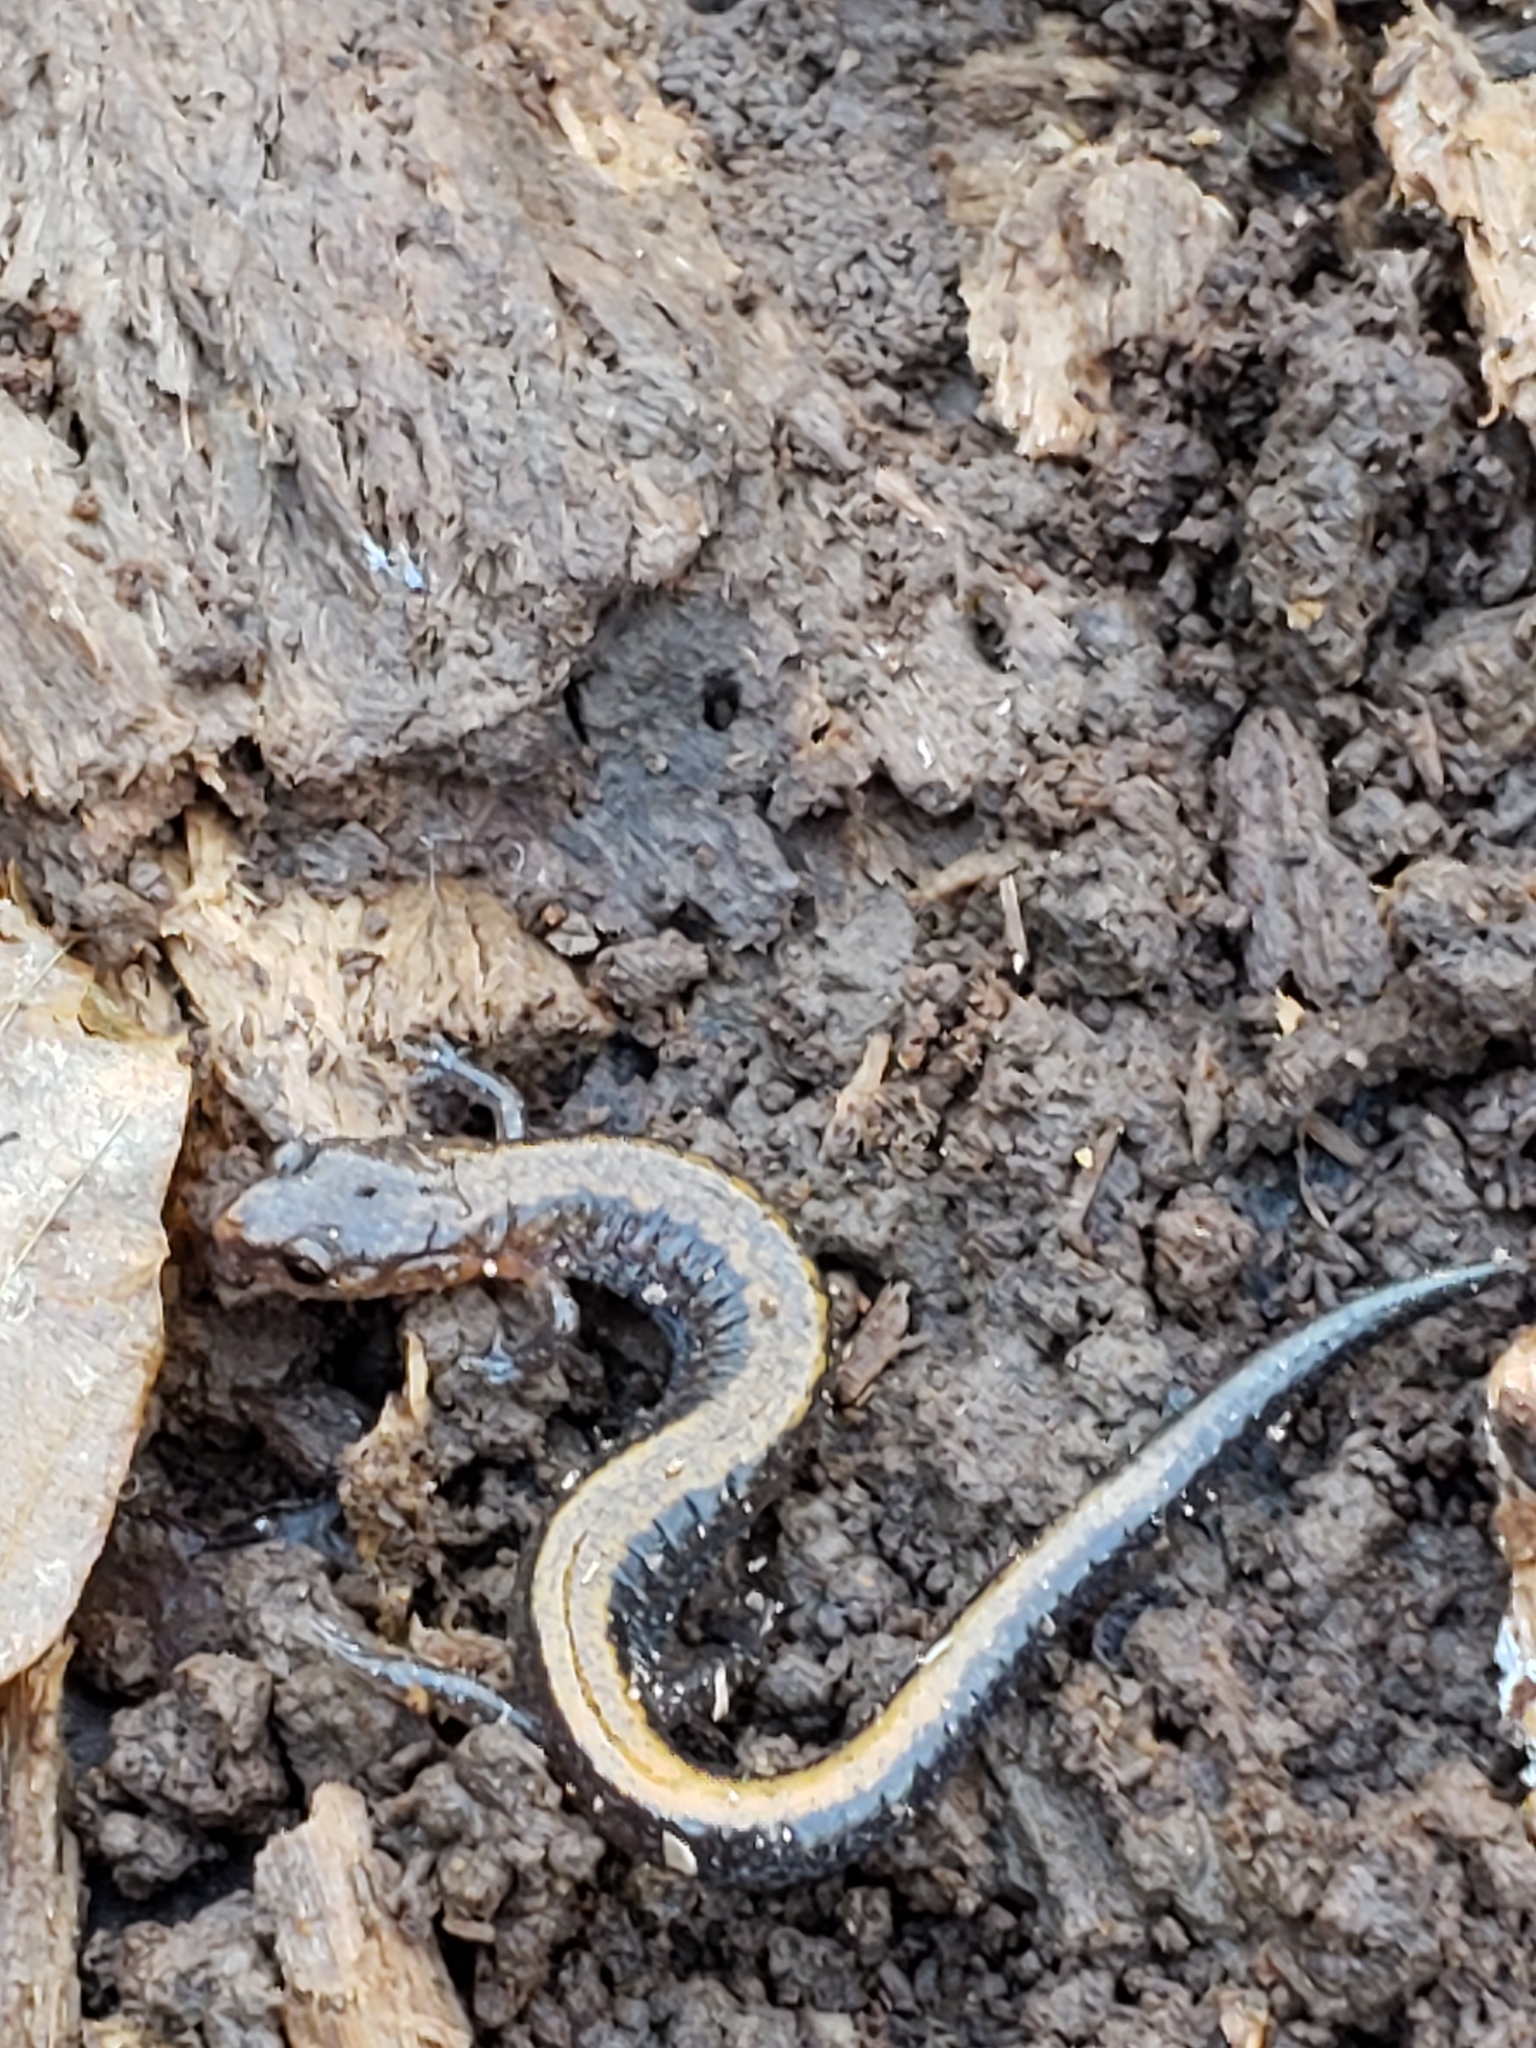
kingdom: Animalia
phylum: Chordata
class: Amphibia
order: Caudata
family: Plethodontidae
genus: Plethodon
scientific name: Plethodon cinereus
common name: Redback salamander
